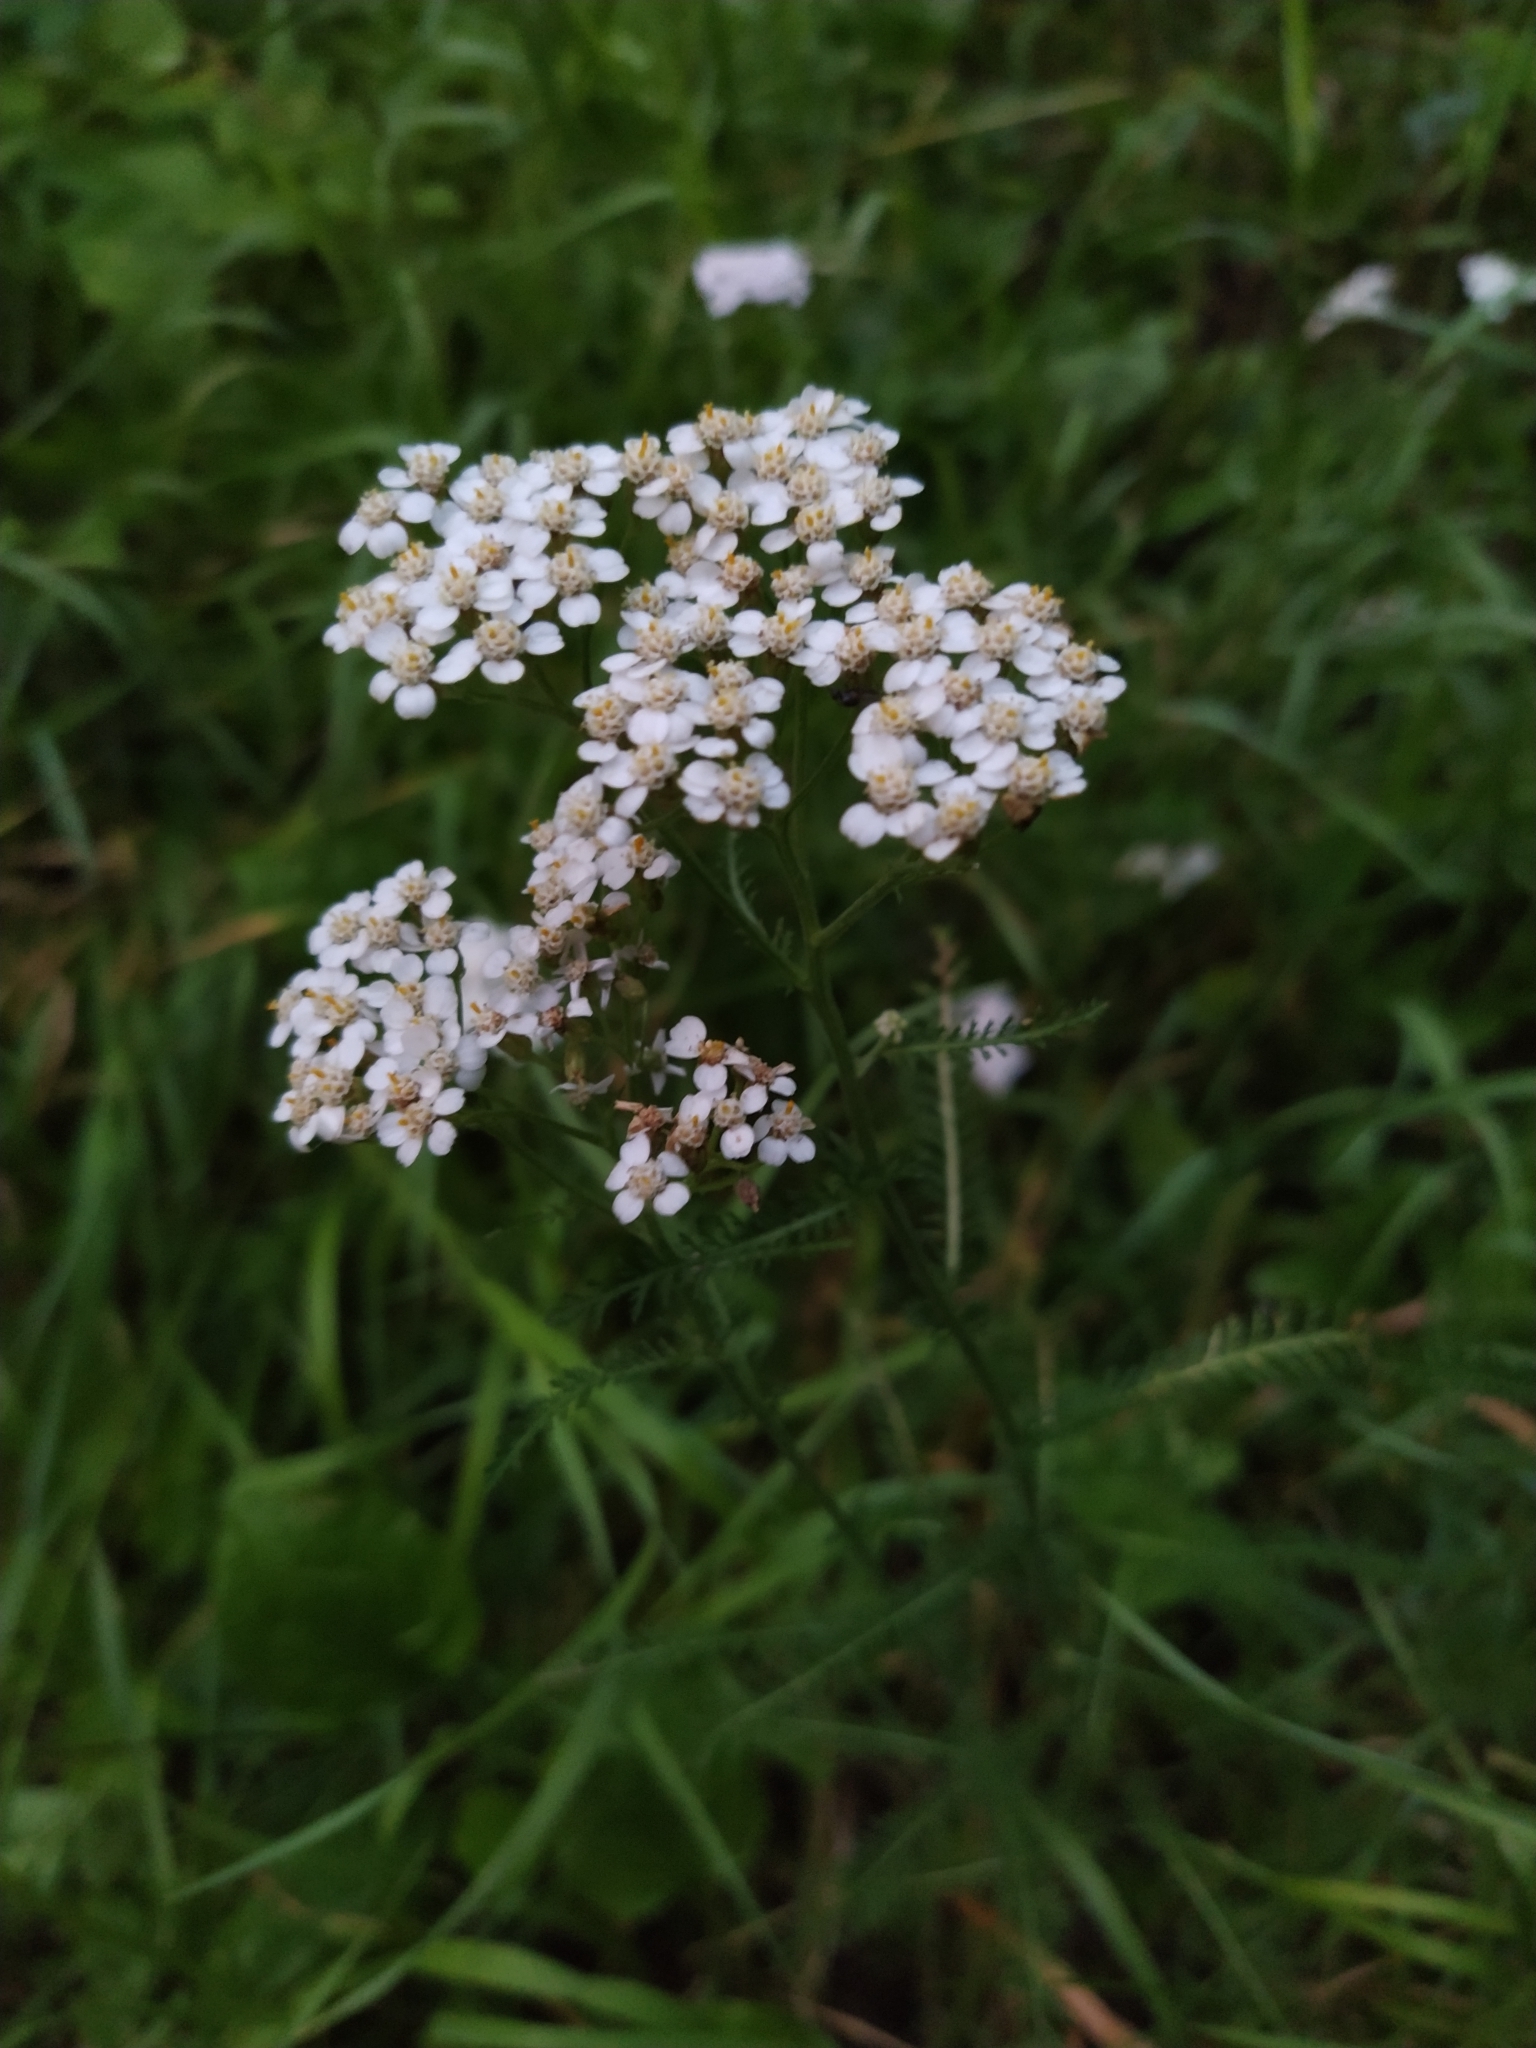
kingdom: Plantae
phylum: Tracheophyta
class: Magnoliopsida
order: Asterales
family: Asteraceae
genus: Achillea
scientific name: Achillea millefolium
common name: Yarrow
